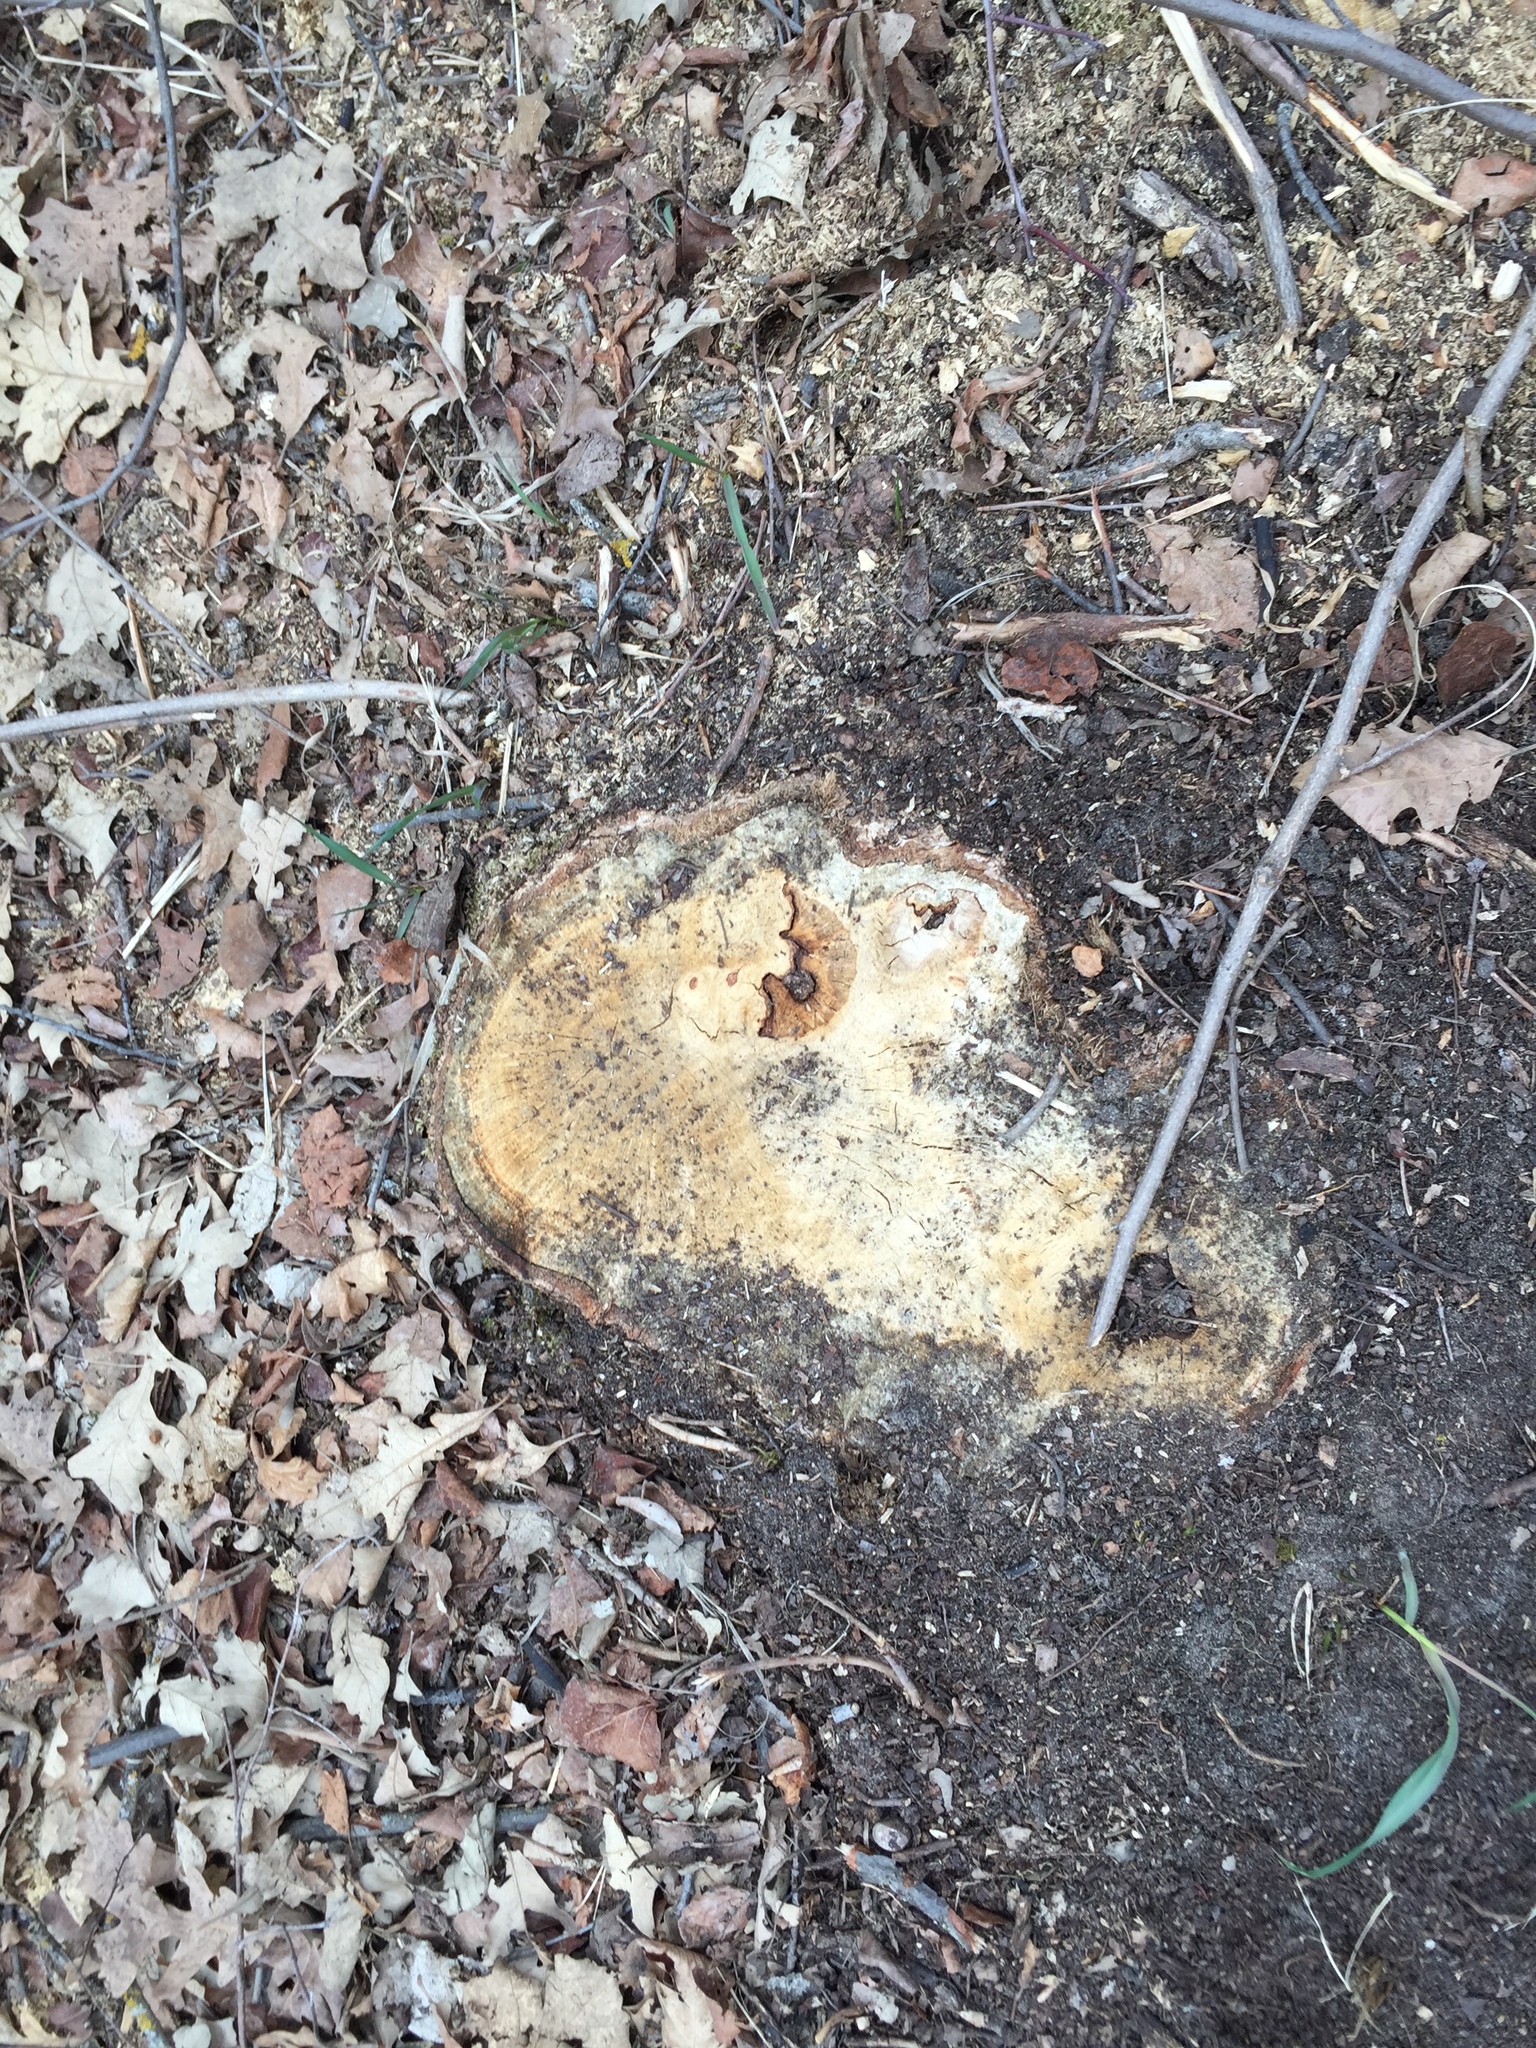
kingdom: Plantae
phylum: Tracheophyta
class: Magnoliopsida
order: Fagales
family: Fagaceae
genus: Quercus
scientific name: Quercus macrocarpa
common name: Bur oak
